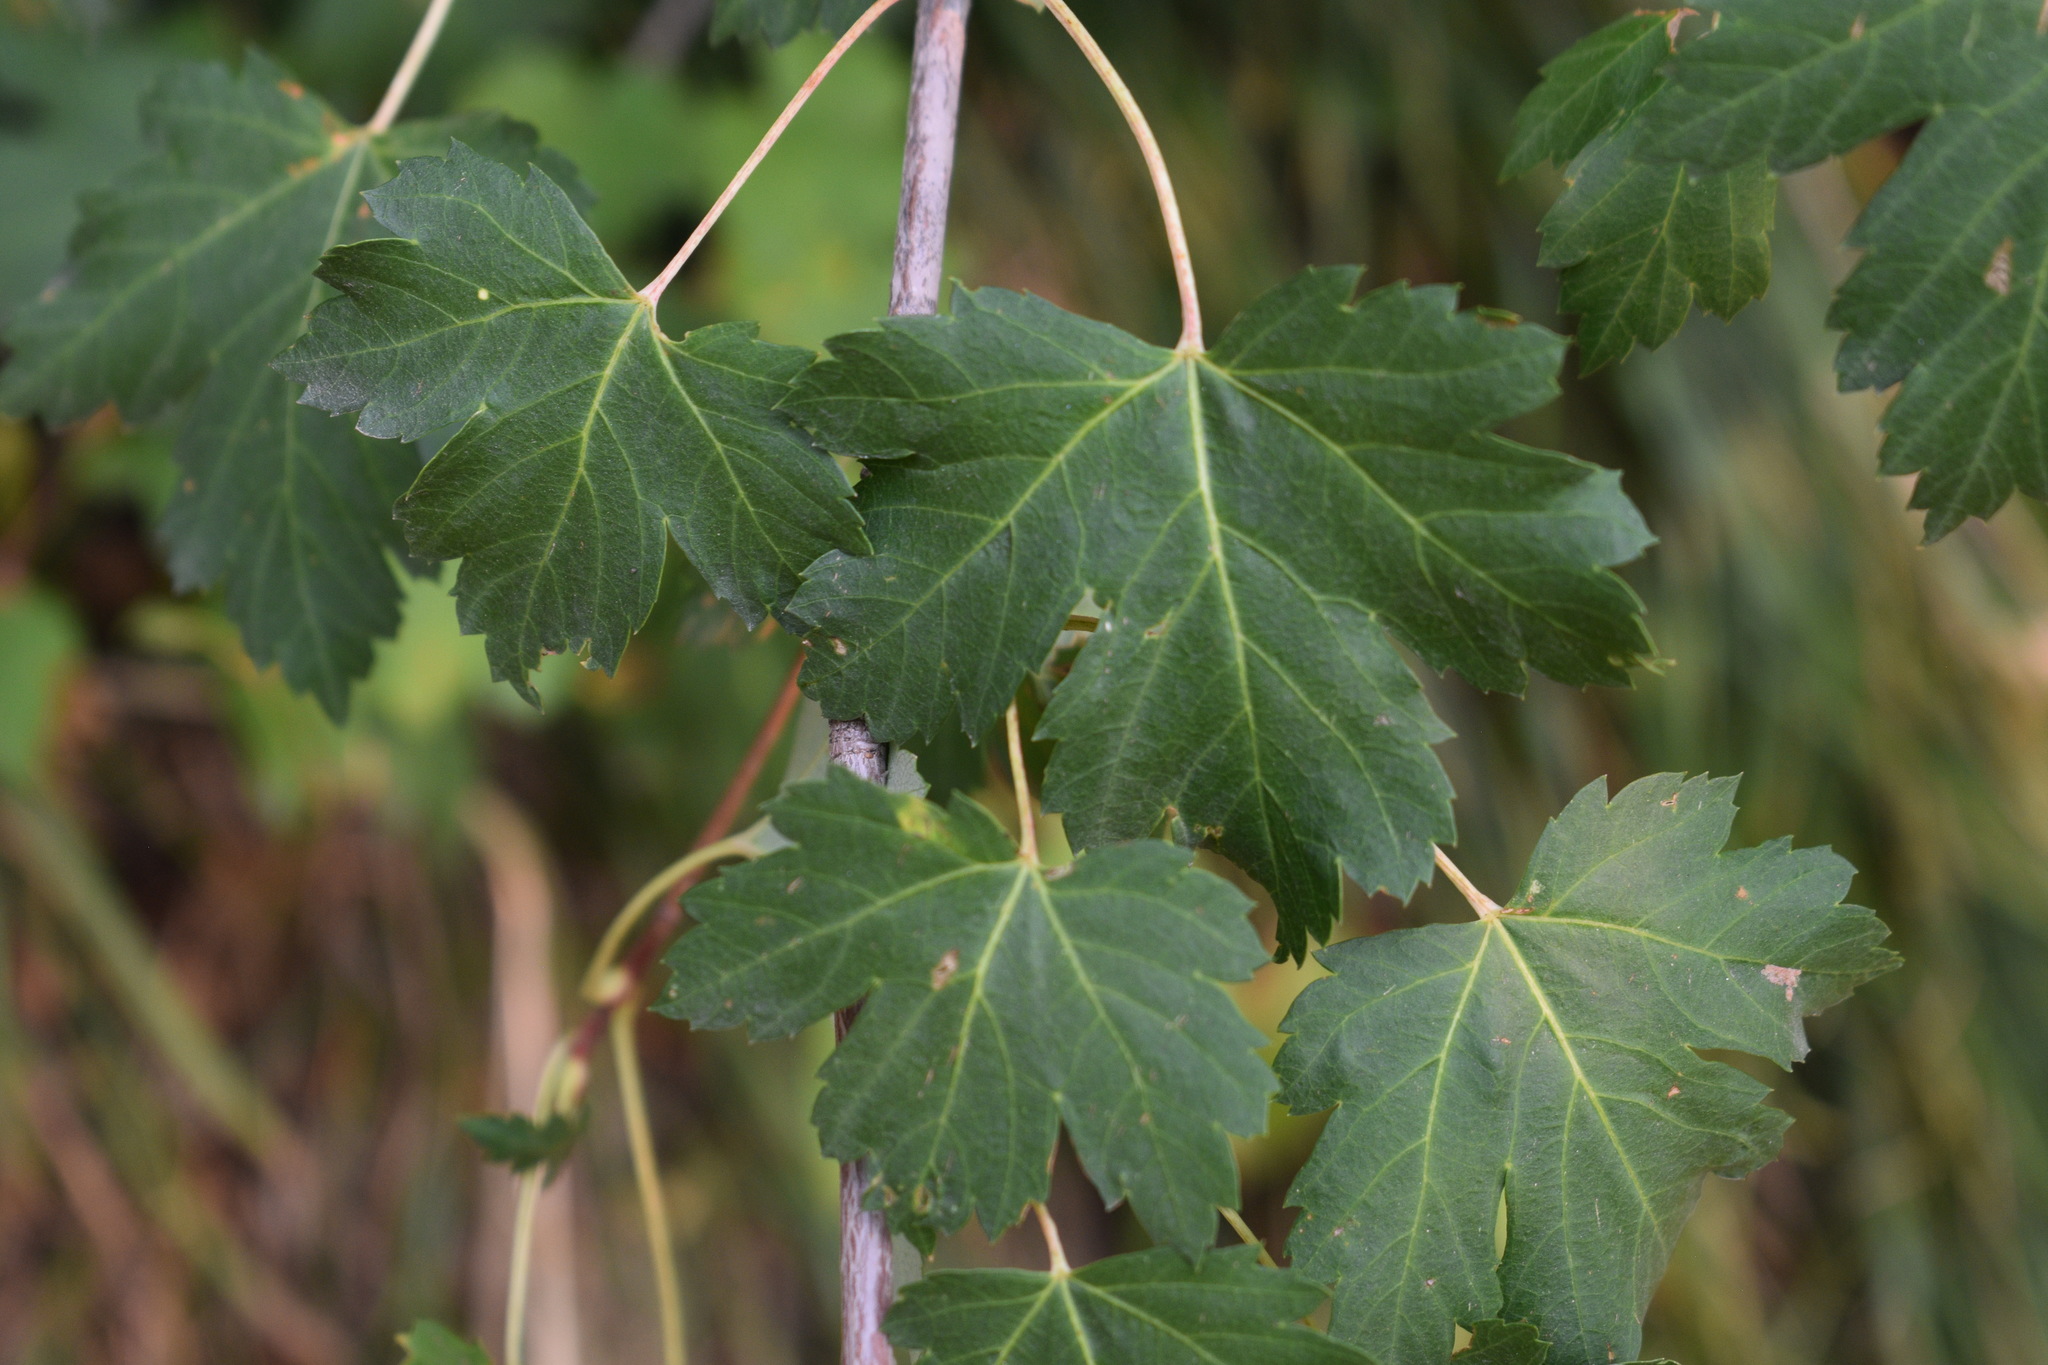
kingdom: Plantae
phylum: Tracheophyta
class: Magnoliopsida
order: Sapindales
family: Sapindaceae
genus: Acer
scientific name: Acer glabrum
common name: Rocky mountain maple
